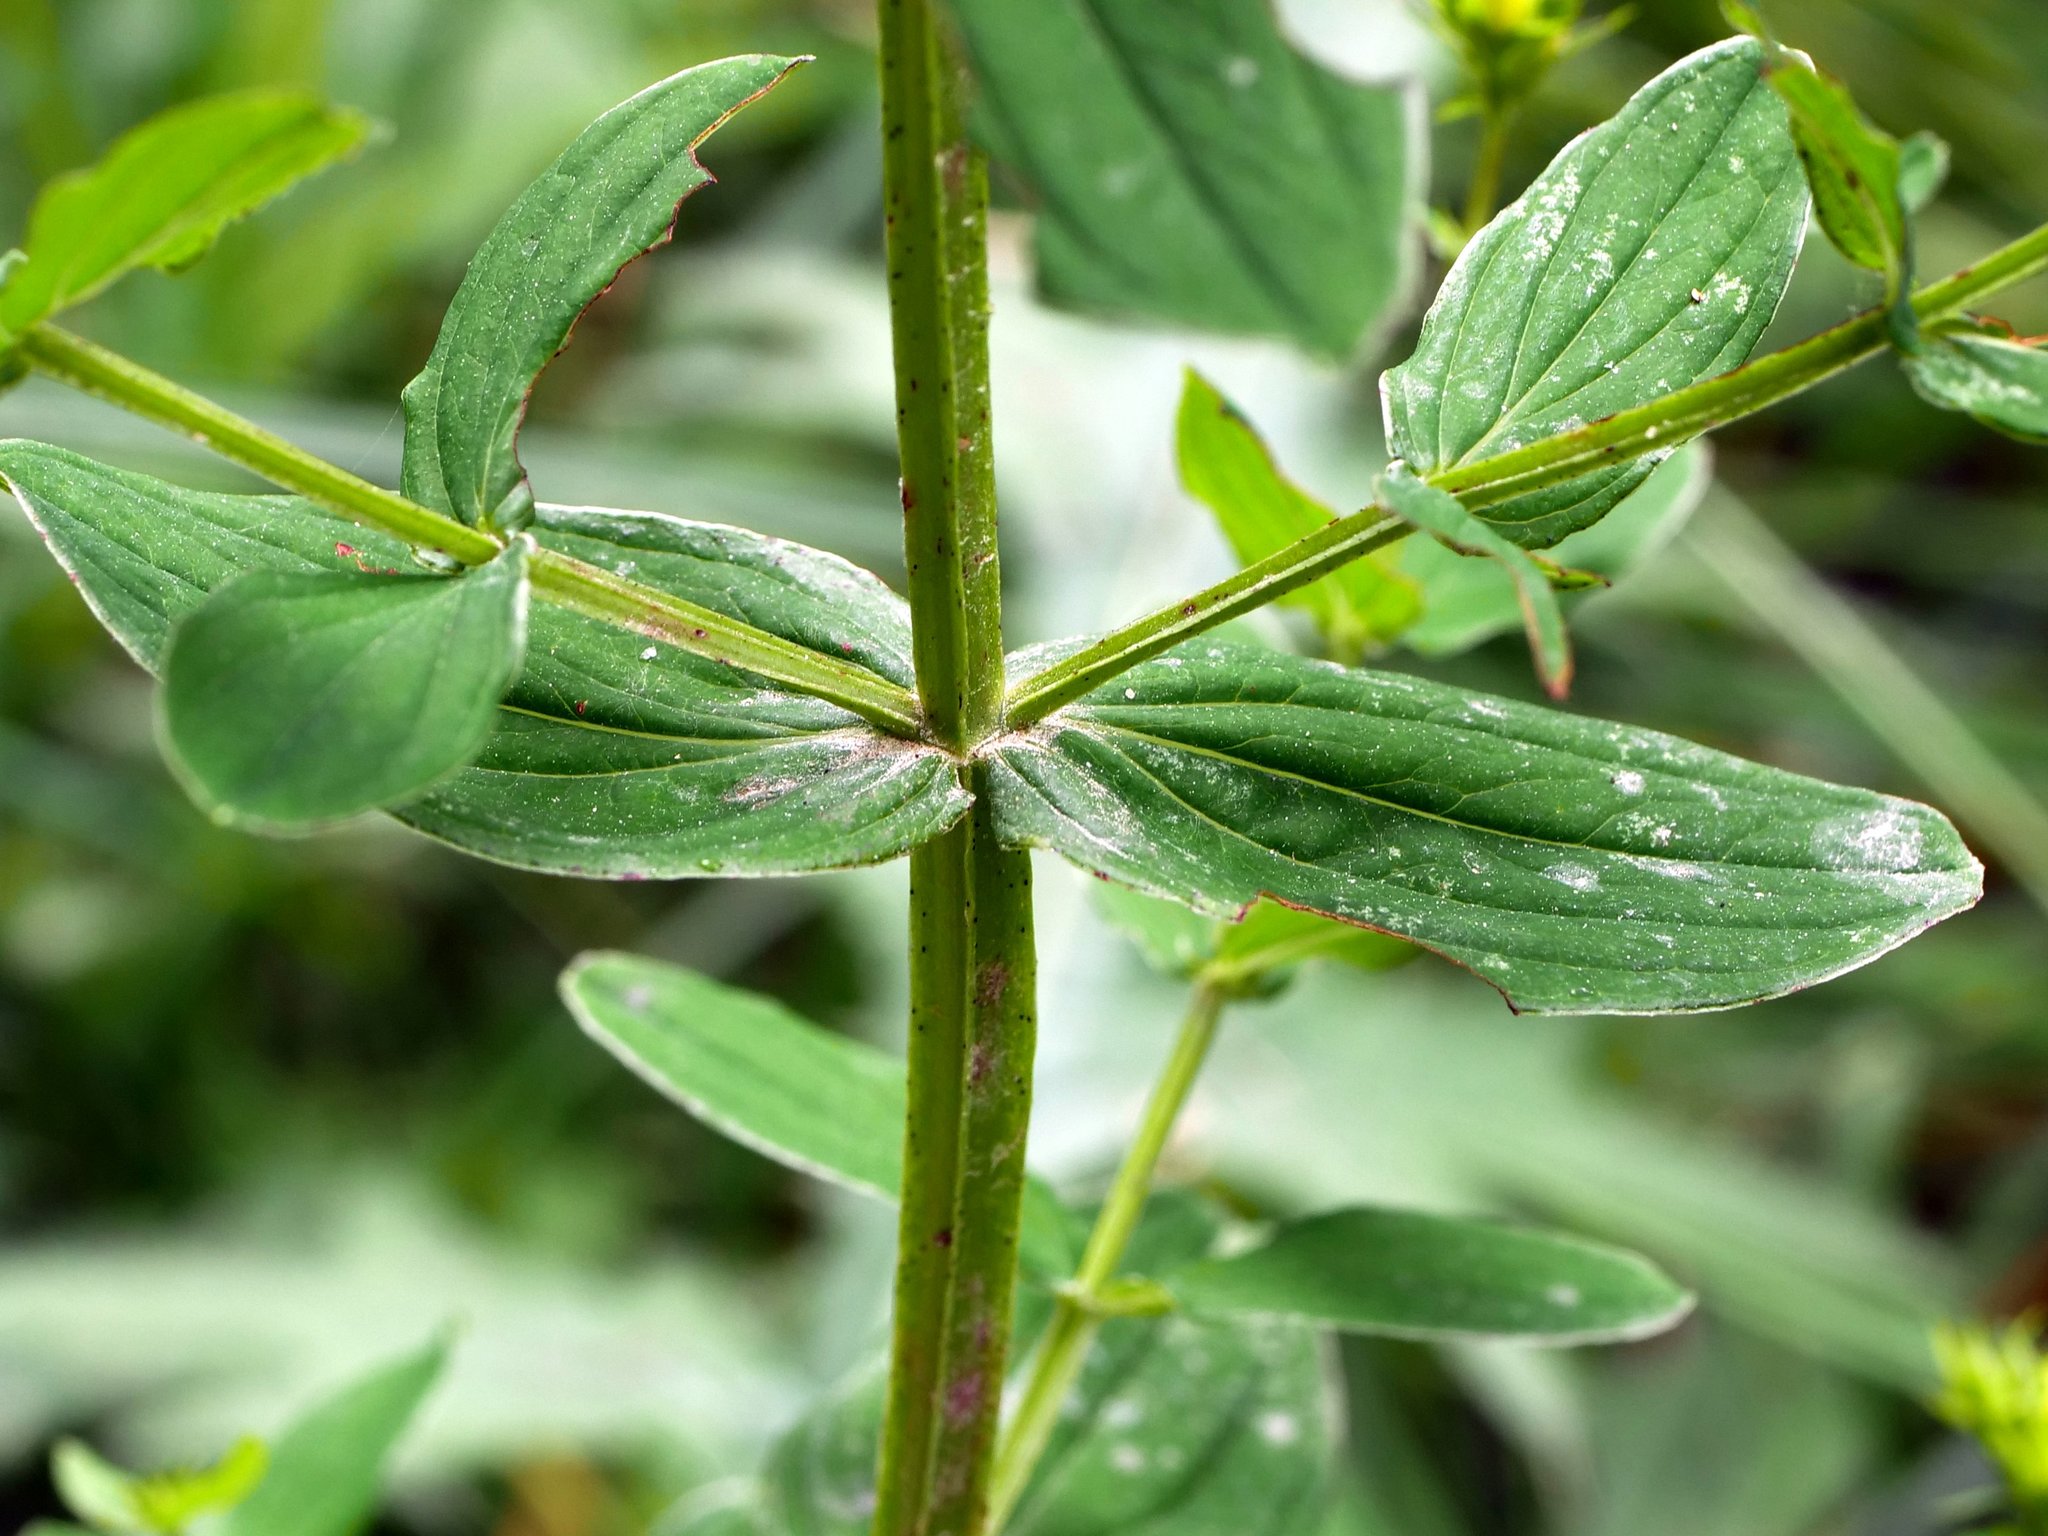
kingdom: Plantae
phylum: Tracheophyta
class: Magnoliopsida
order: Malpighiales
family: Hypericaceae
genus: Hypericum
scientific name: Hypericum tetrapterum
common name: Square-stalked st. john's-wort
